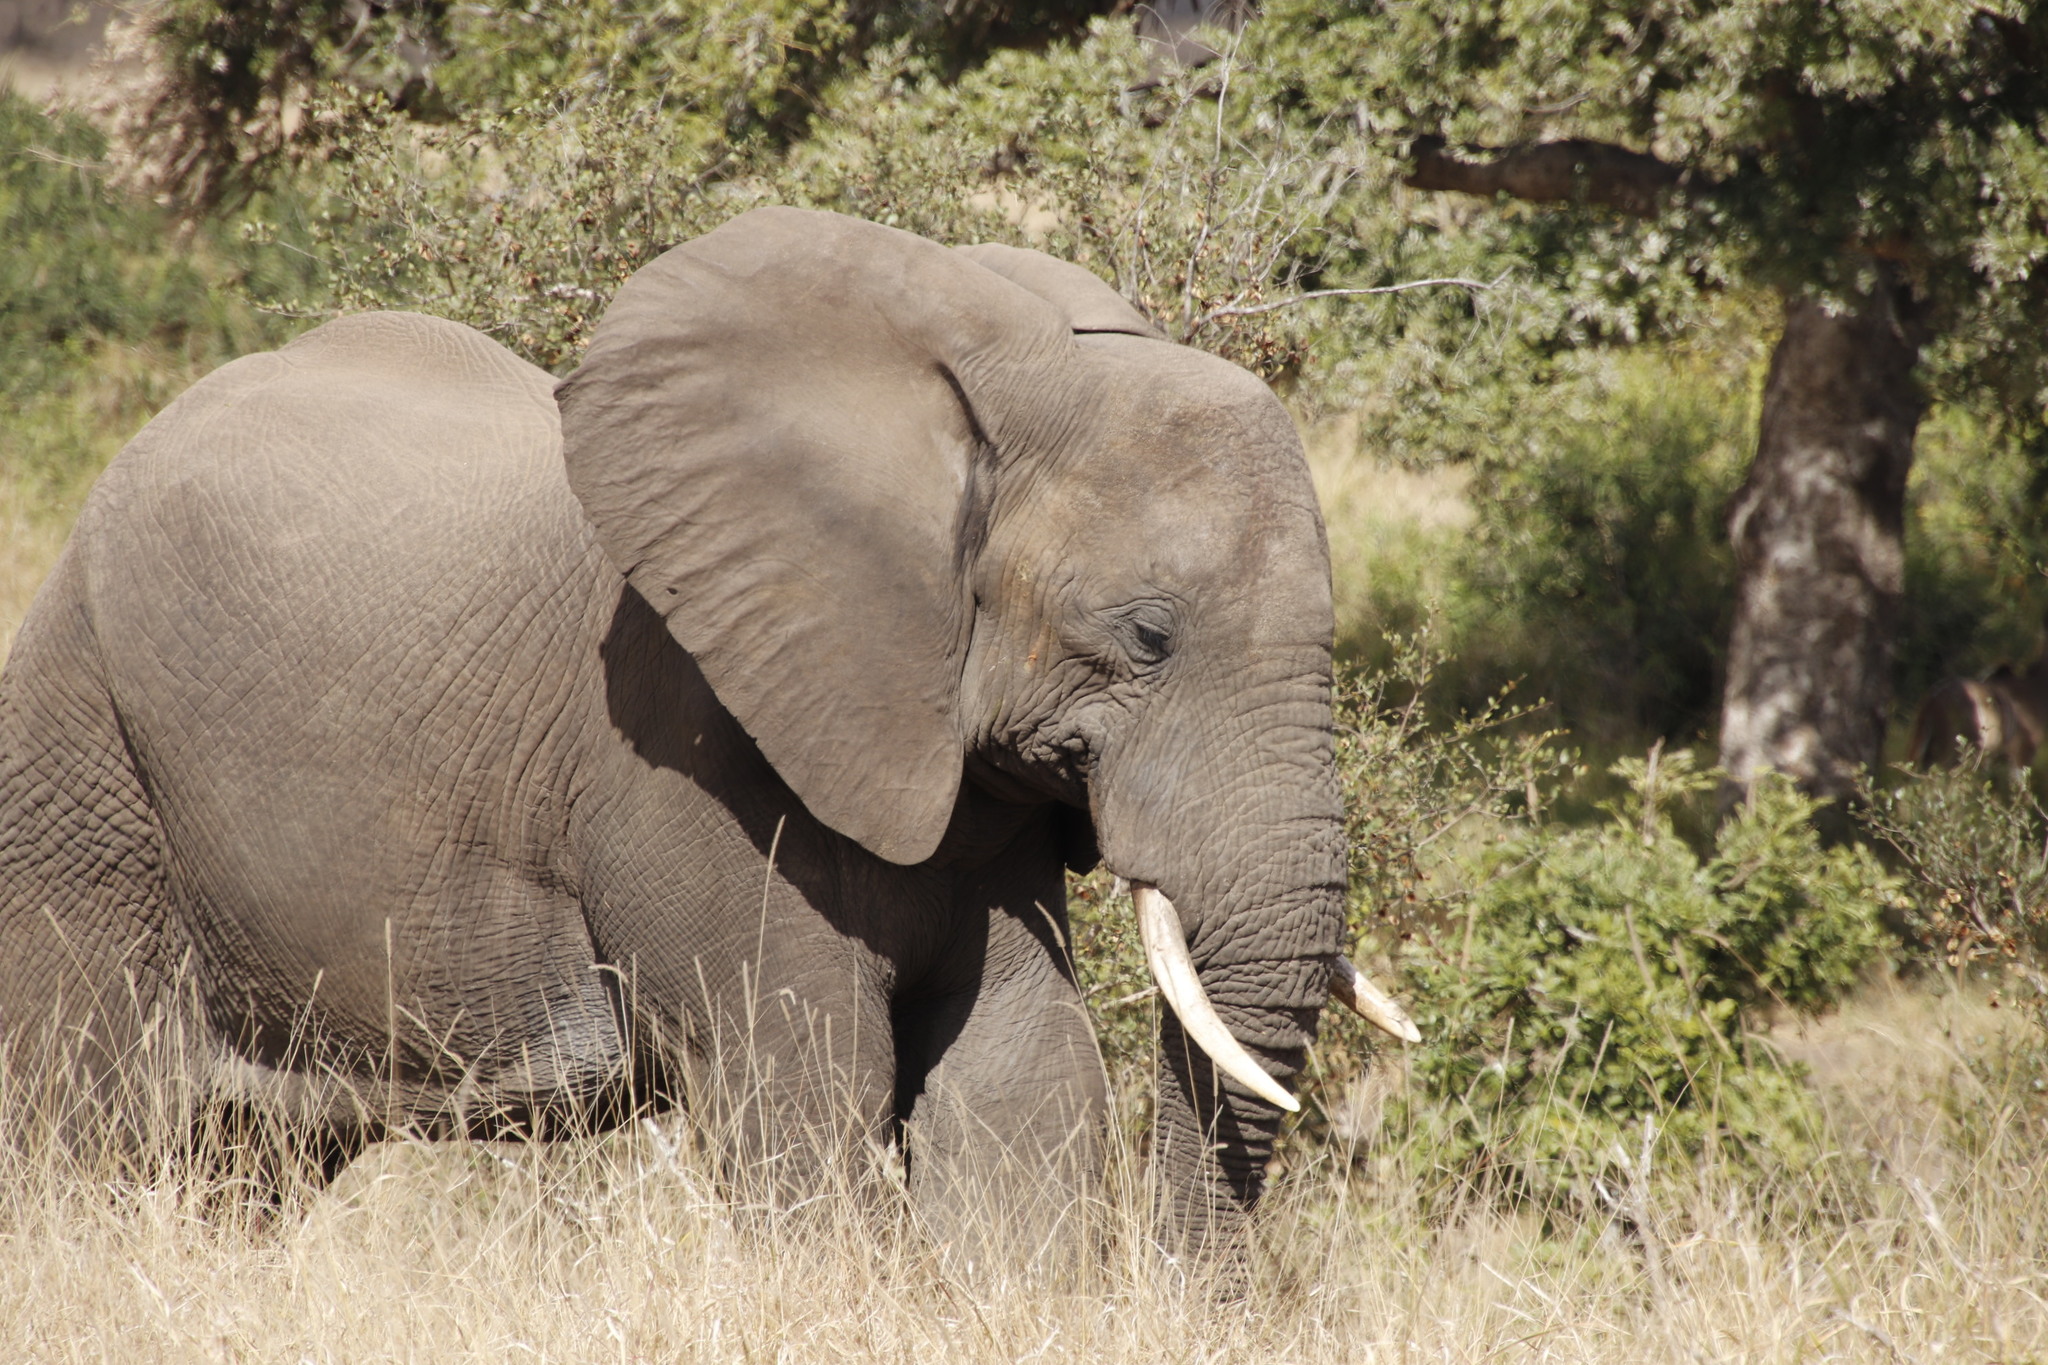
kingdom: Animalia
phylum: Chordata
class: Mammalia
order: Proboscidea
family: Elephantidae
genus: Loxodonta
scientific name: Loxodonta africana
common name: African elephant
